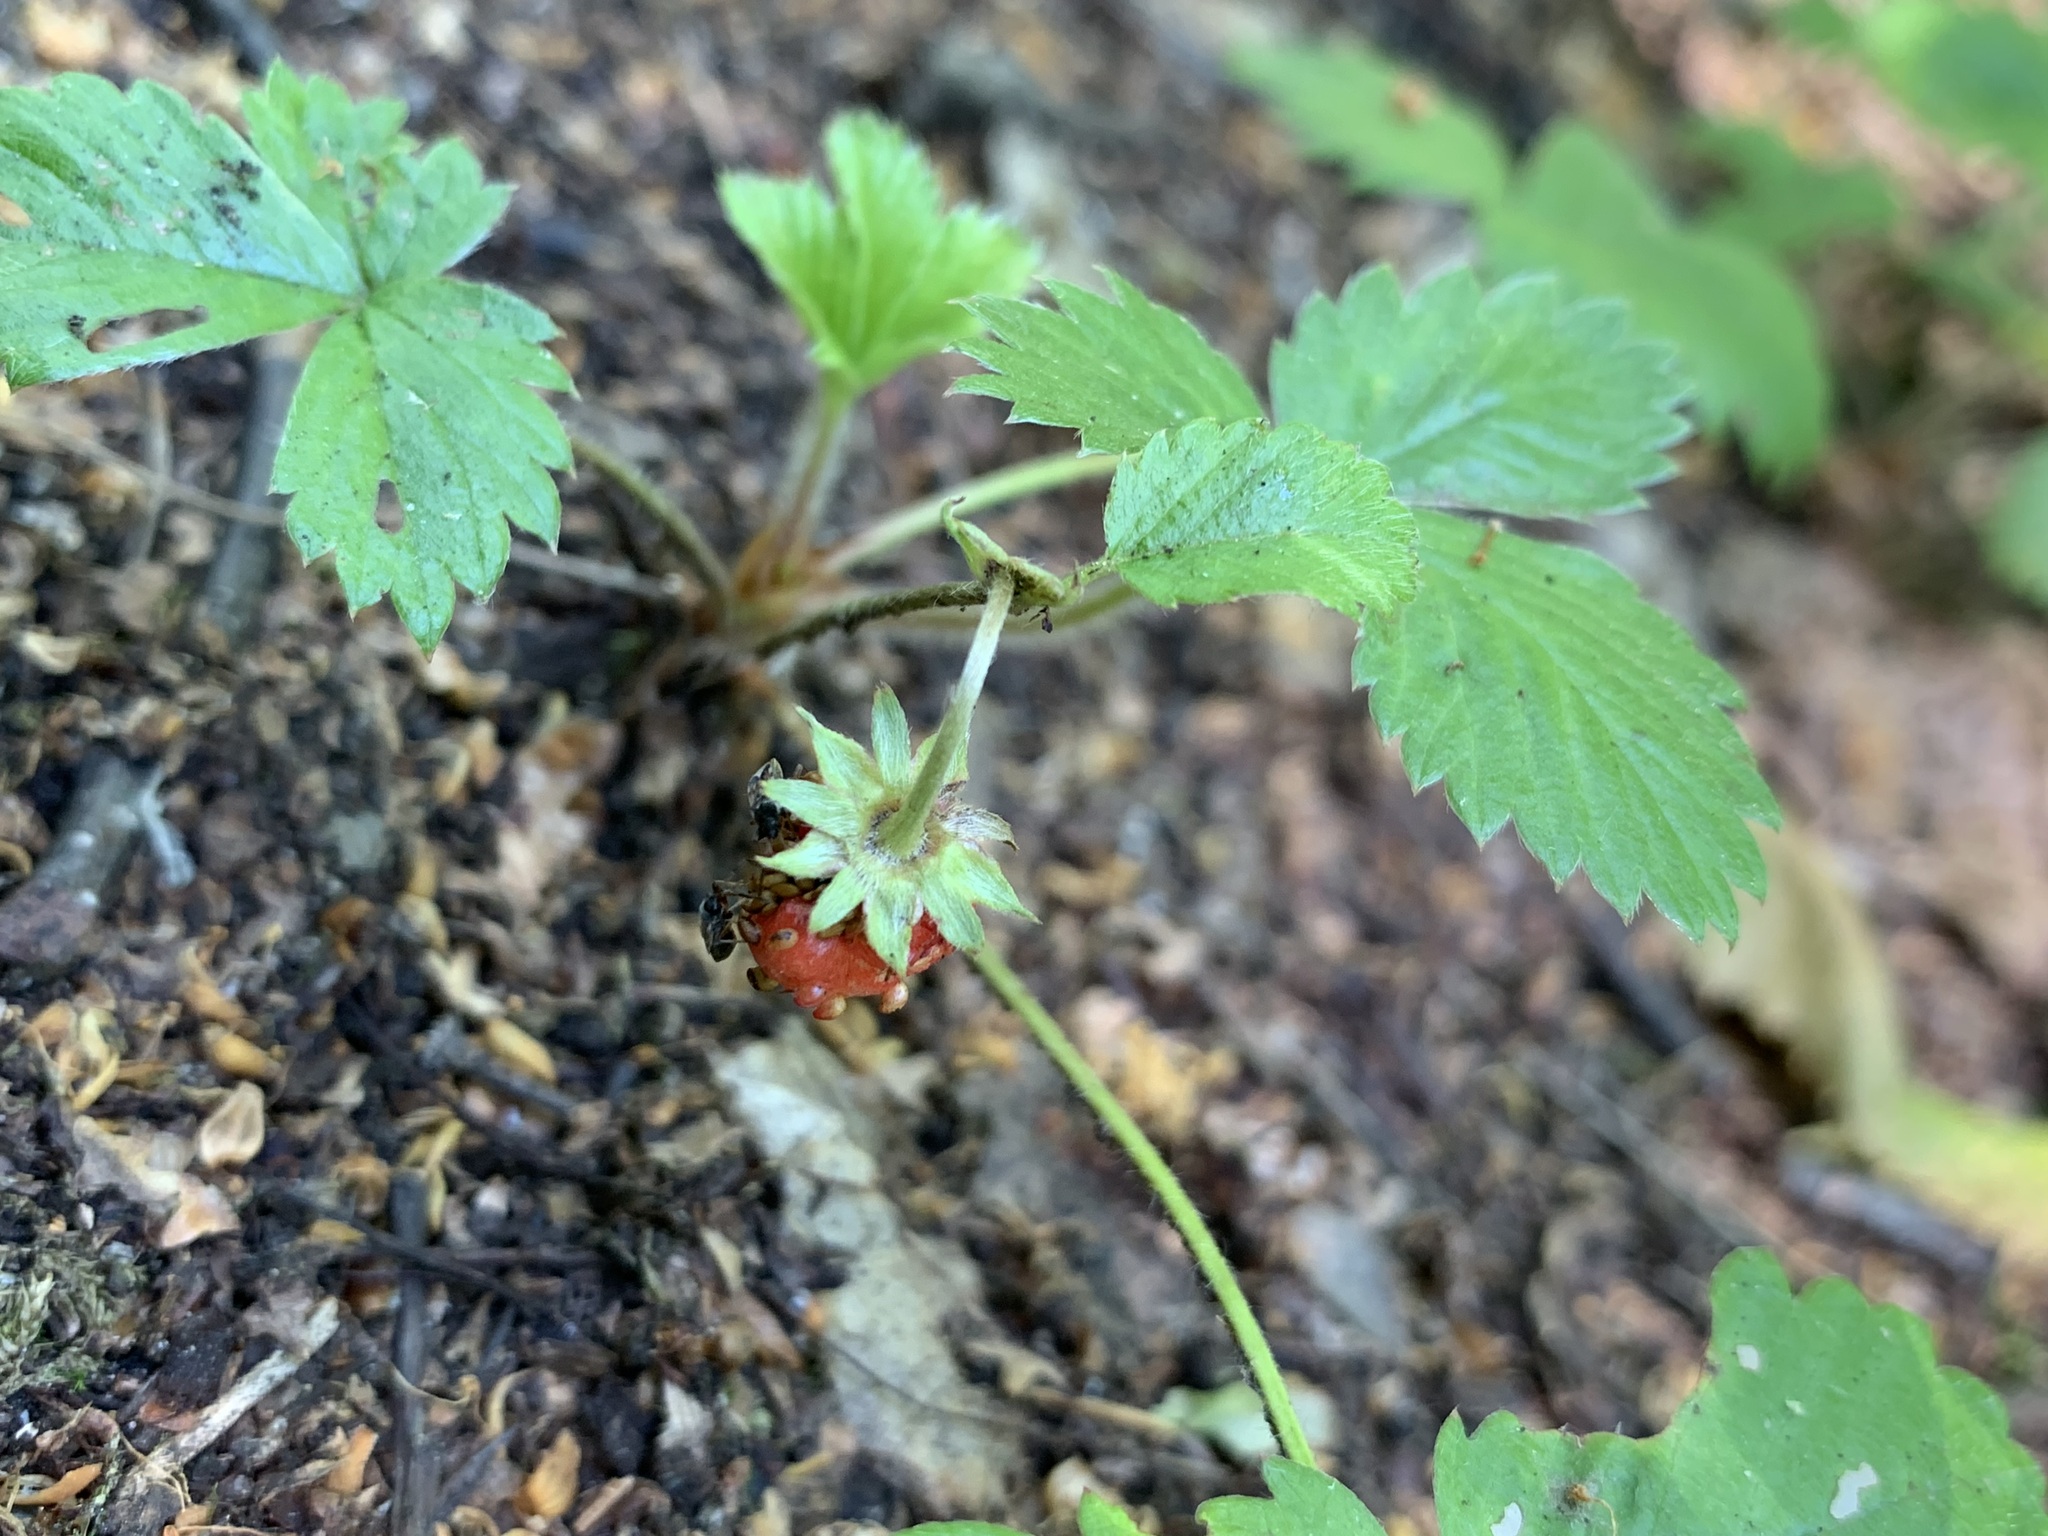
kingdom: Plantae
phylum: Tracheophyta
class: Magnoliopsida
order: Rosales
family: Rosaceae
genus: Fragaria
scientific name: Fragaria vesca
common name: Wild strawberry
